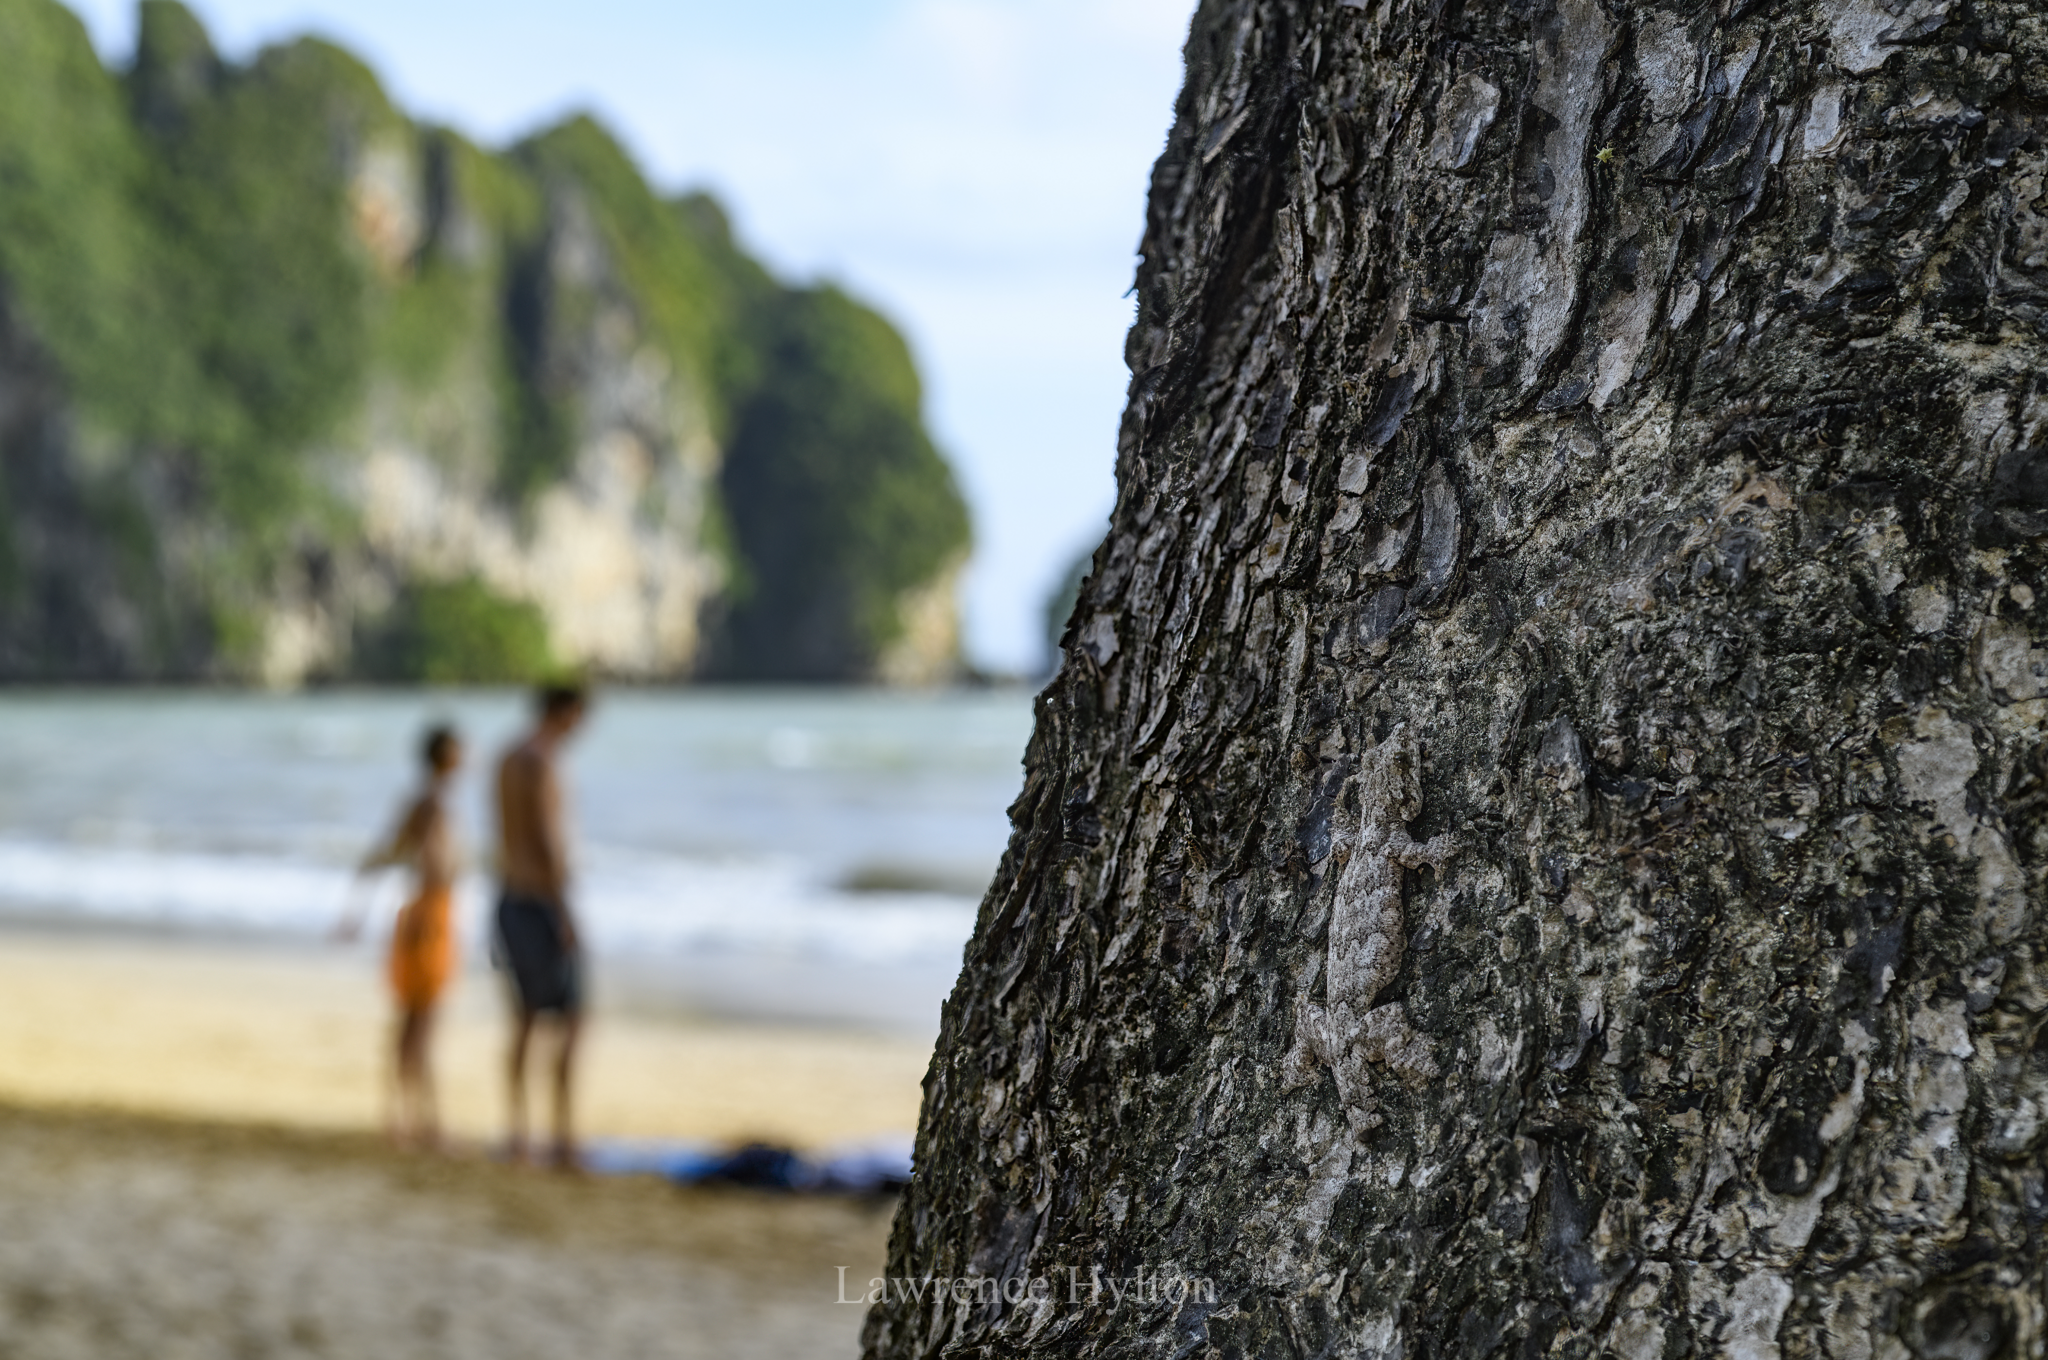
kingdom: Animalia
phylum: Chordata
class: Squamata
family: Gekkonidae
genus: Gekko
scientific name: Gekko tokehos
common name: Cambodian parachute gecko
